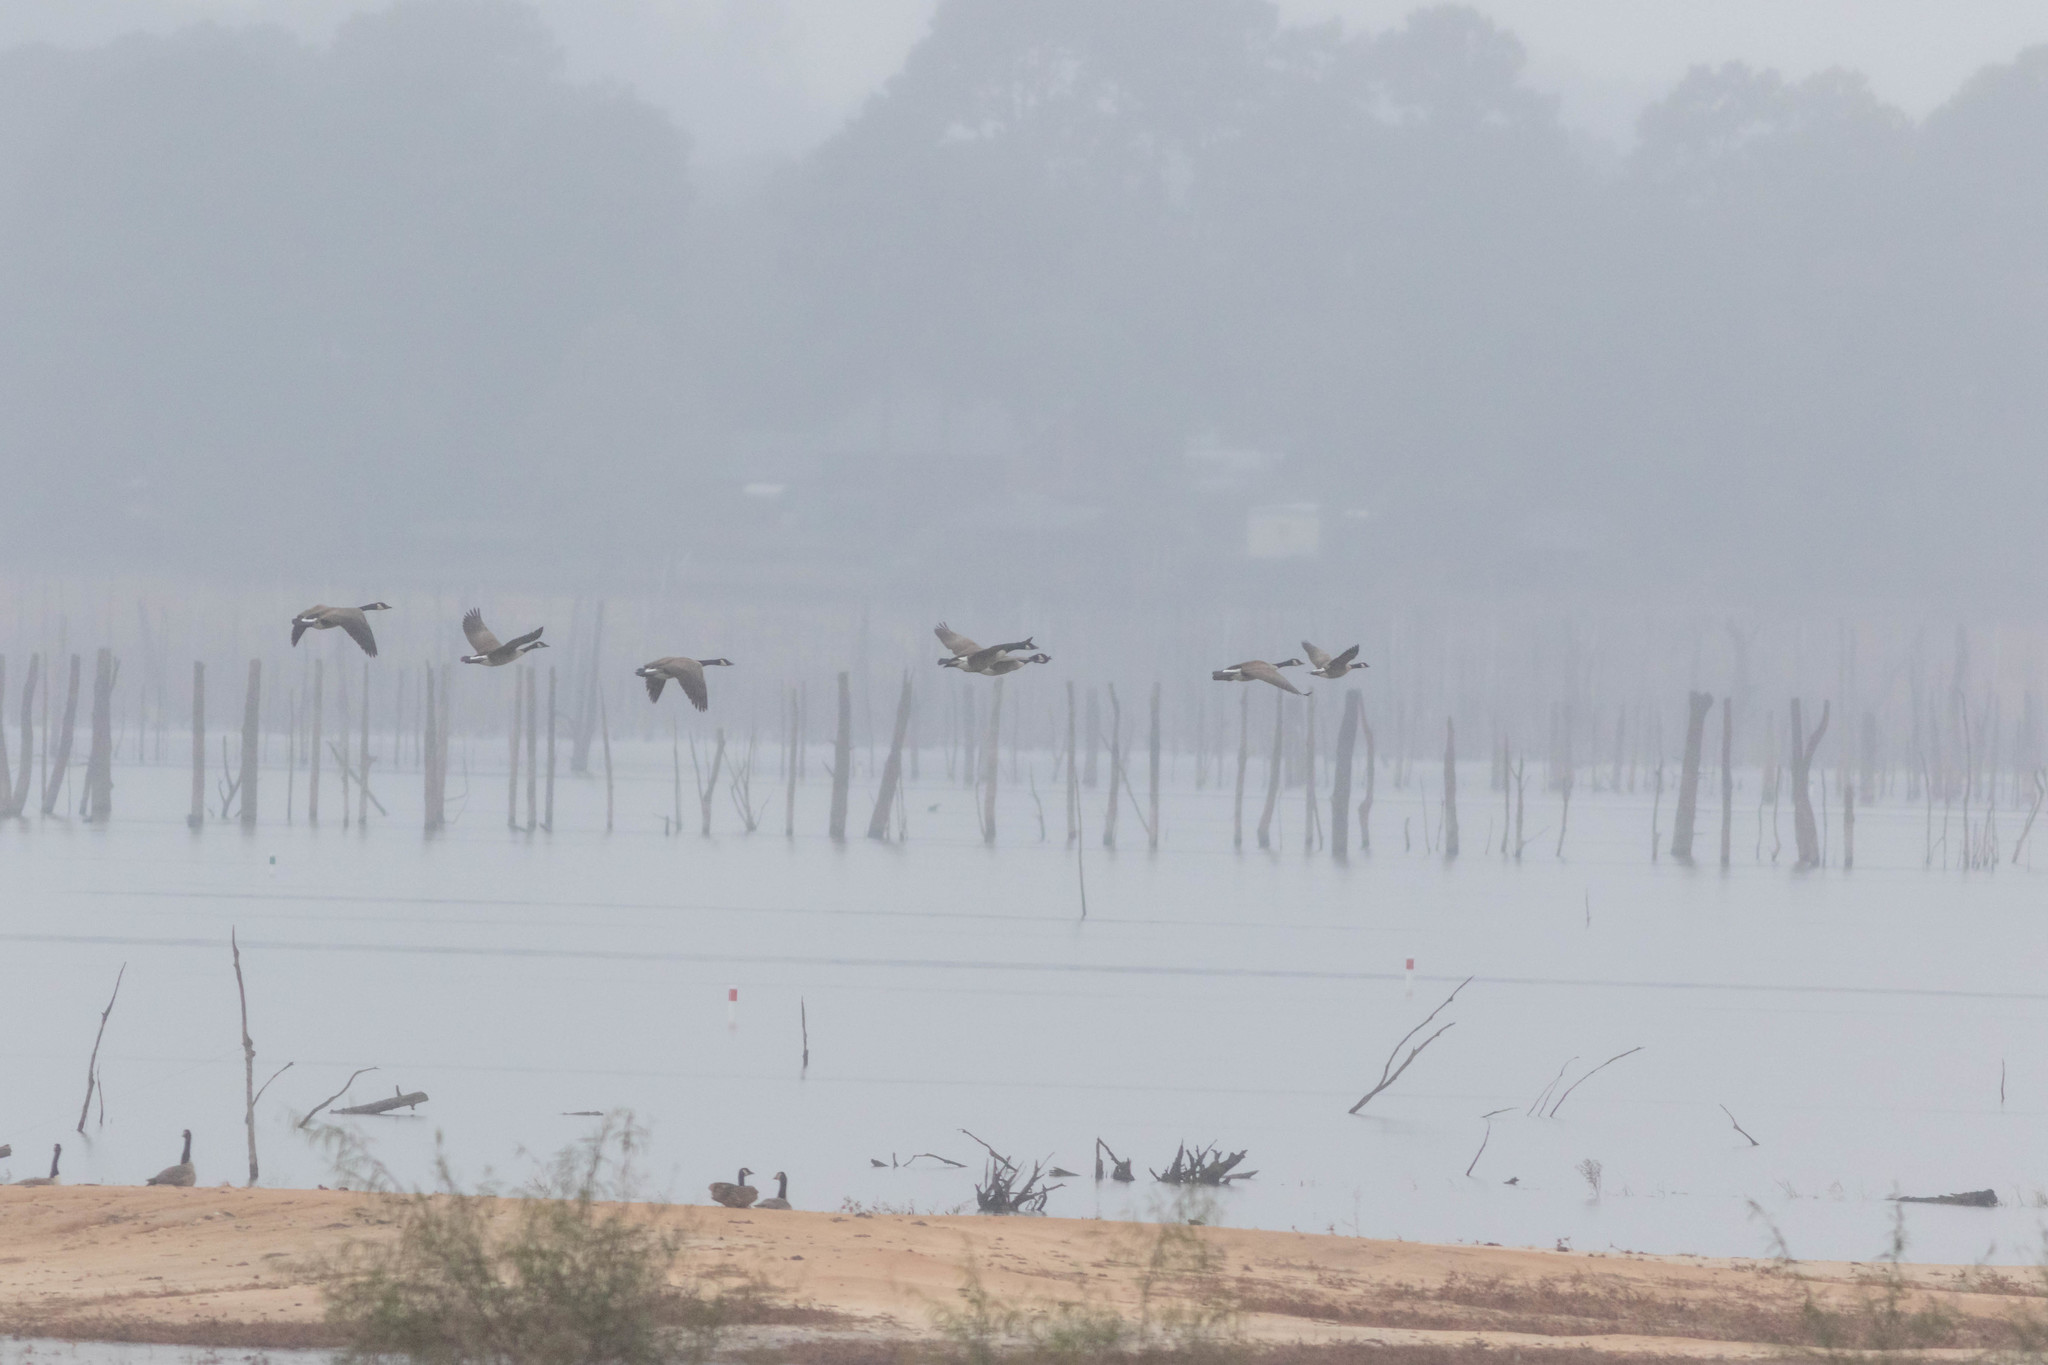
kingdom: Animalia
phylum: Chordata
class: Aves
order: Anseriformes
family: Anatidae
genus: Branta
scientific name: Branta hutchinsii
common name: Cackling goose
